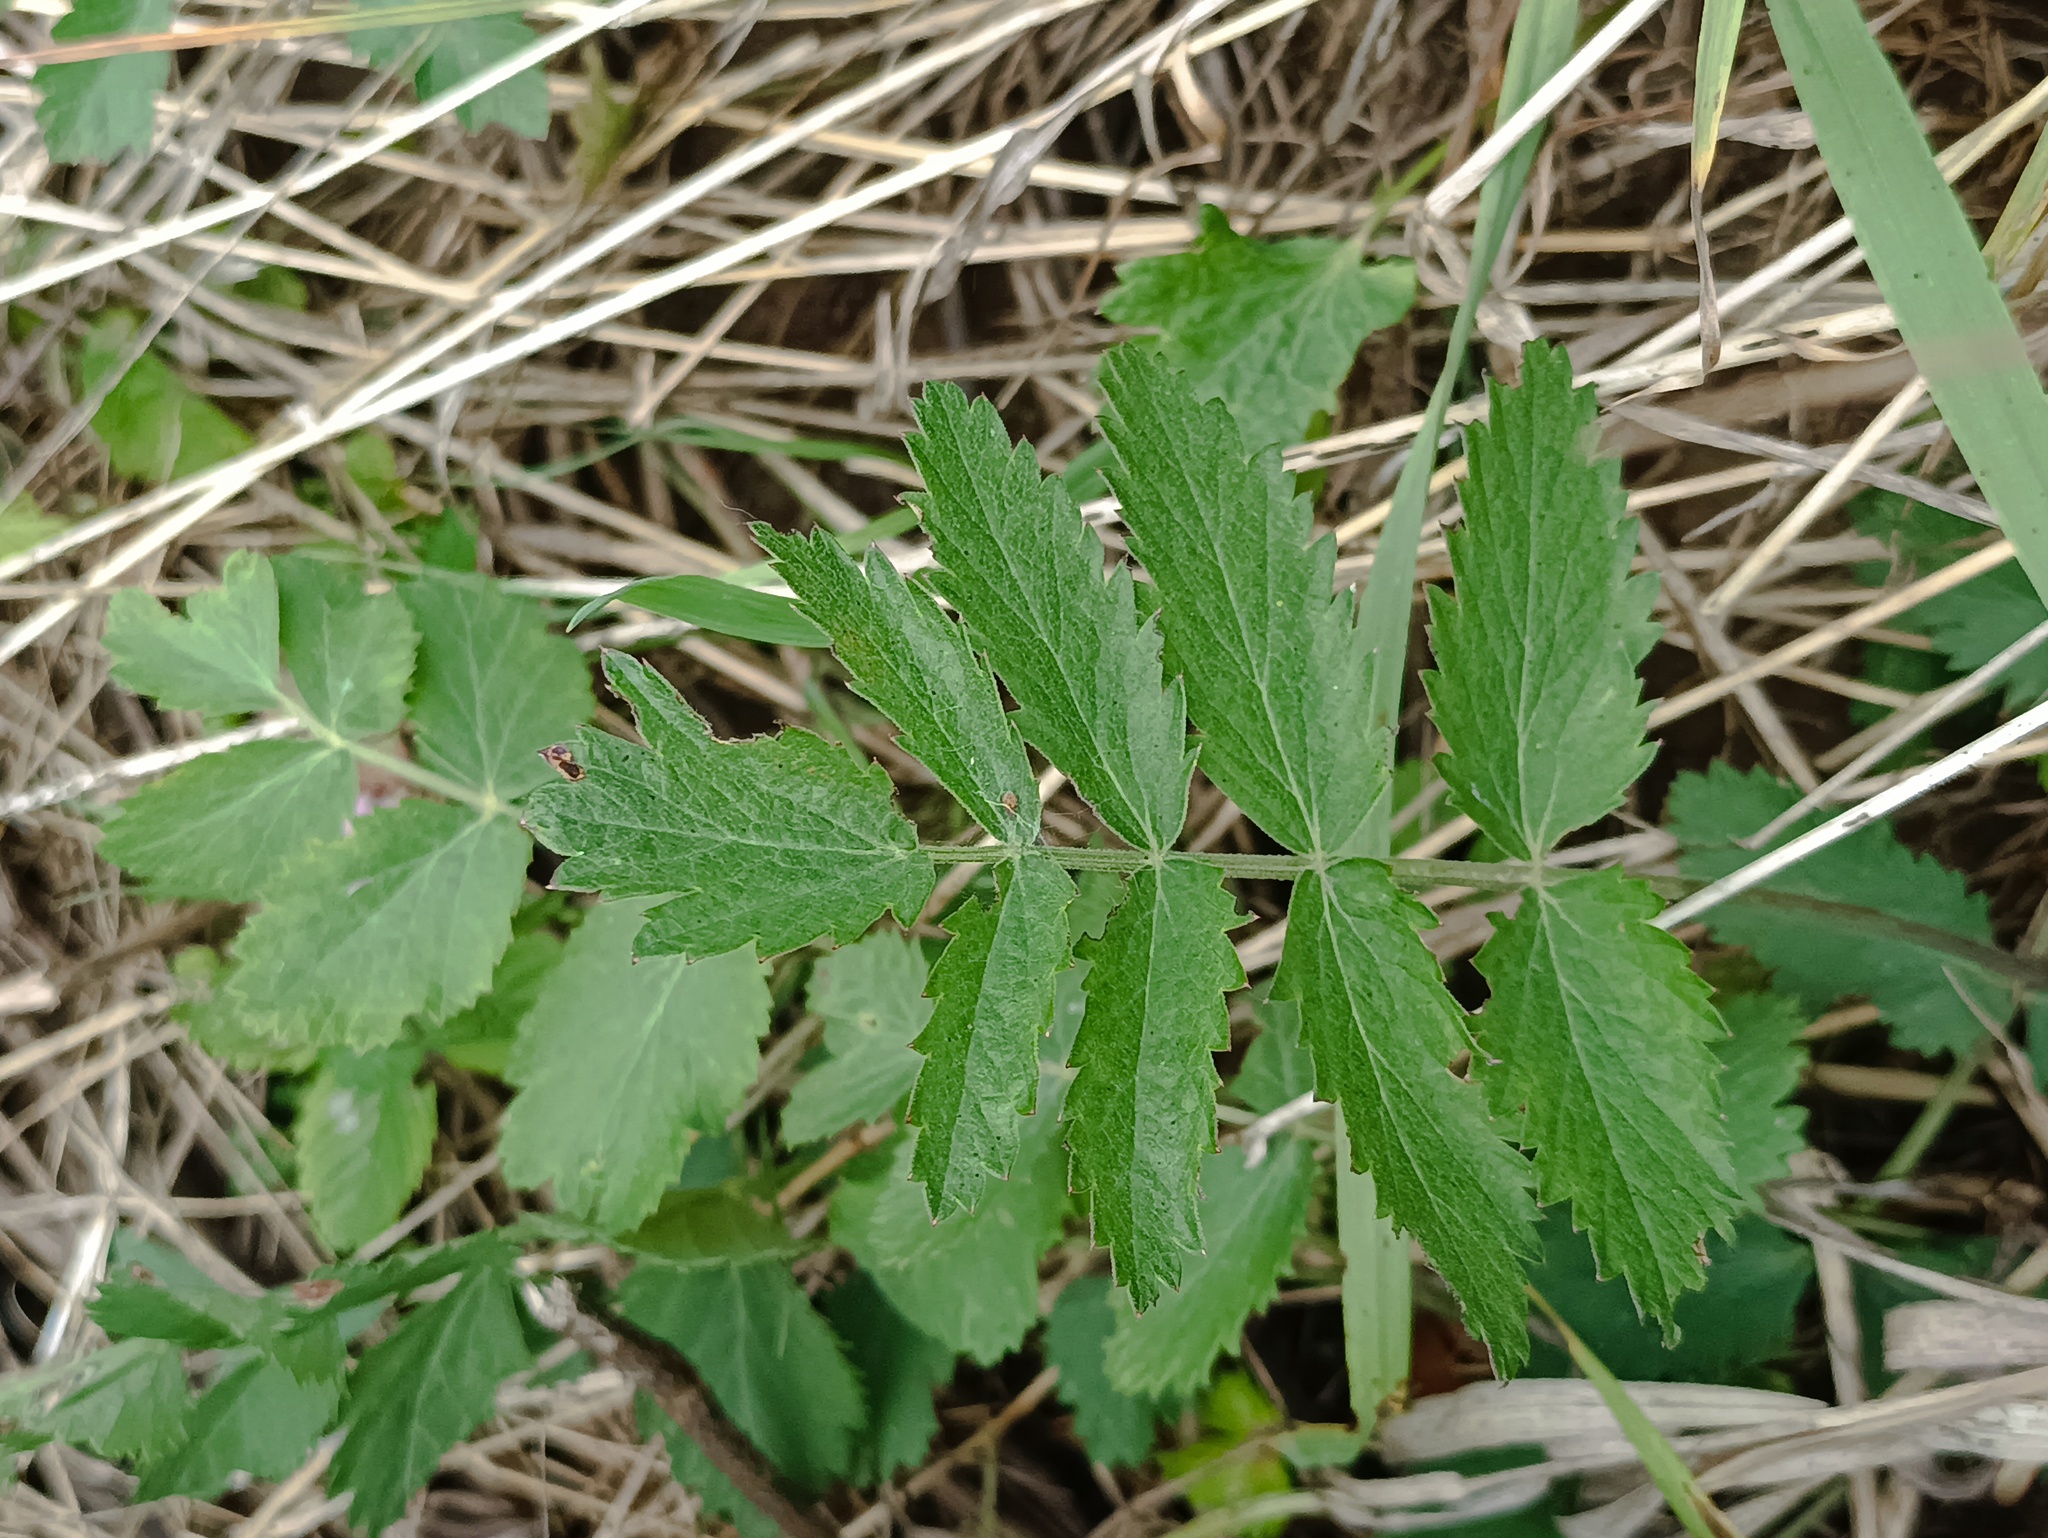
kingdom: Plantae
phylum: Tracheophyta
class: Magnoliopsida
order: Apiales
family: Apiaceae
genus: Pimpinella
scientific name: Pimpinella saxifraga
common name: Burnet-saxifrage
